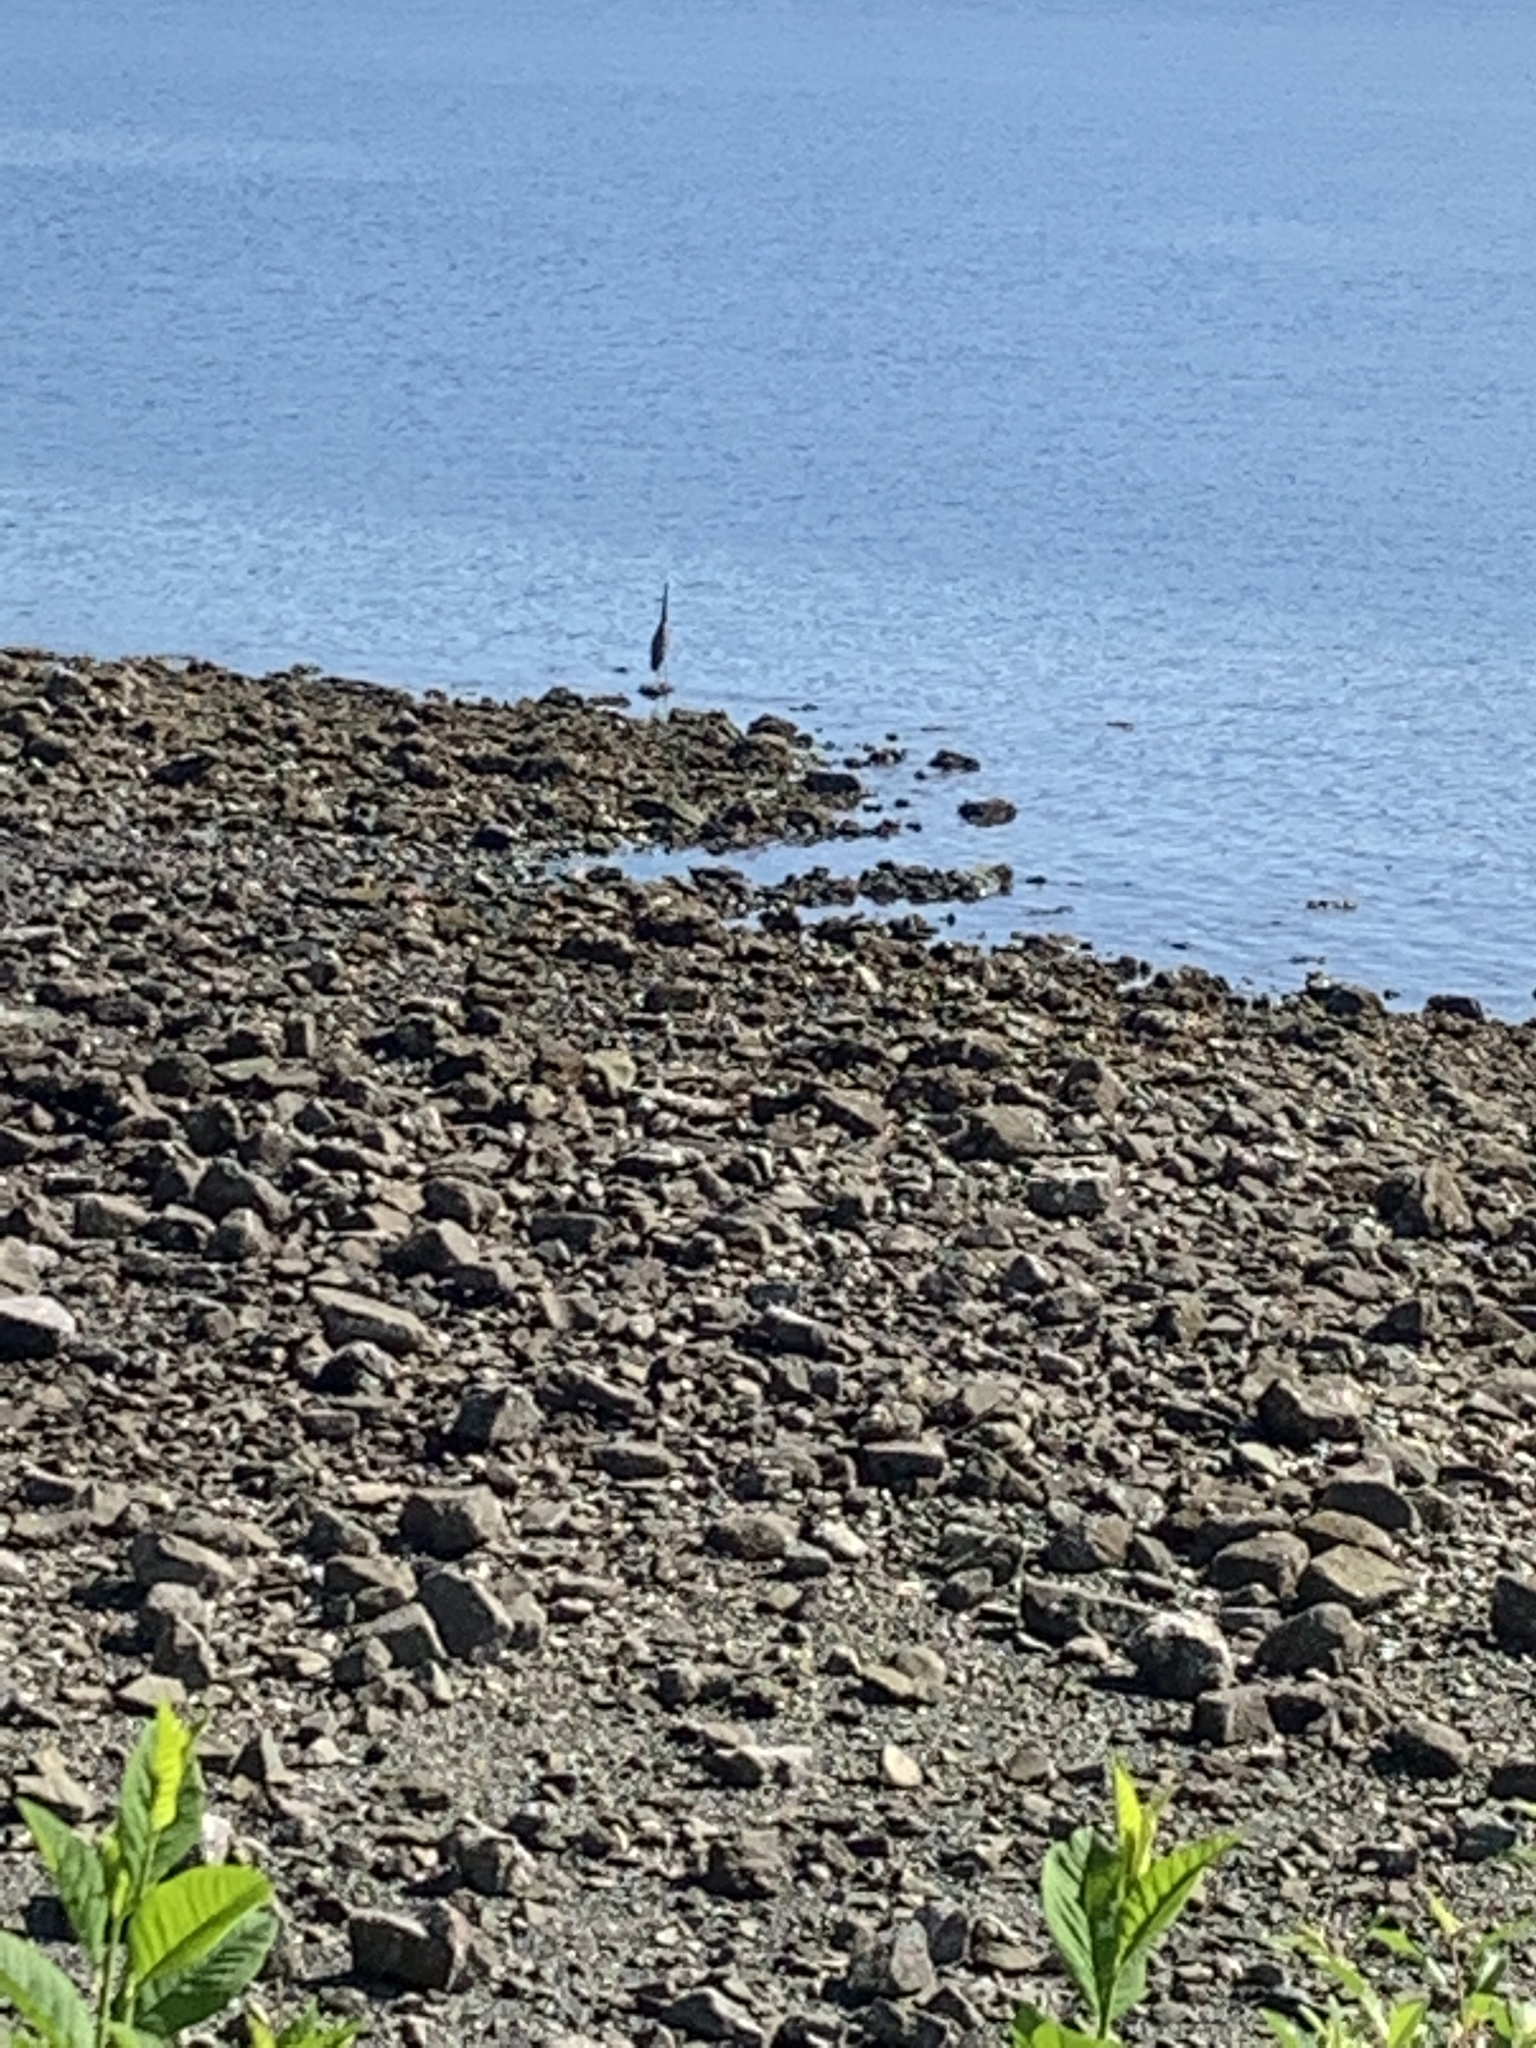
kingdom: Animalia
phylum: Chordata
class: Aves
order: Pelecaniformes
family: Ardeidae
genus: Ardea
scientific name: Ardea herodias
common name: Great blue heron
